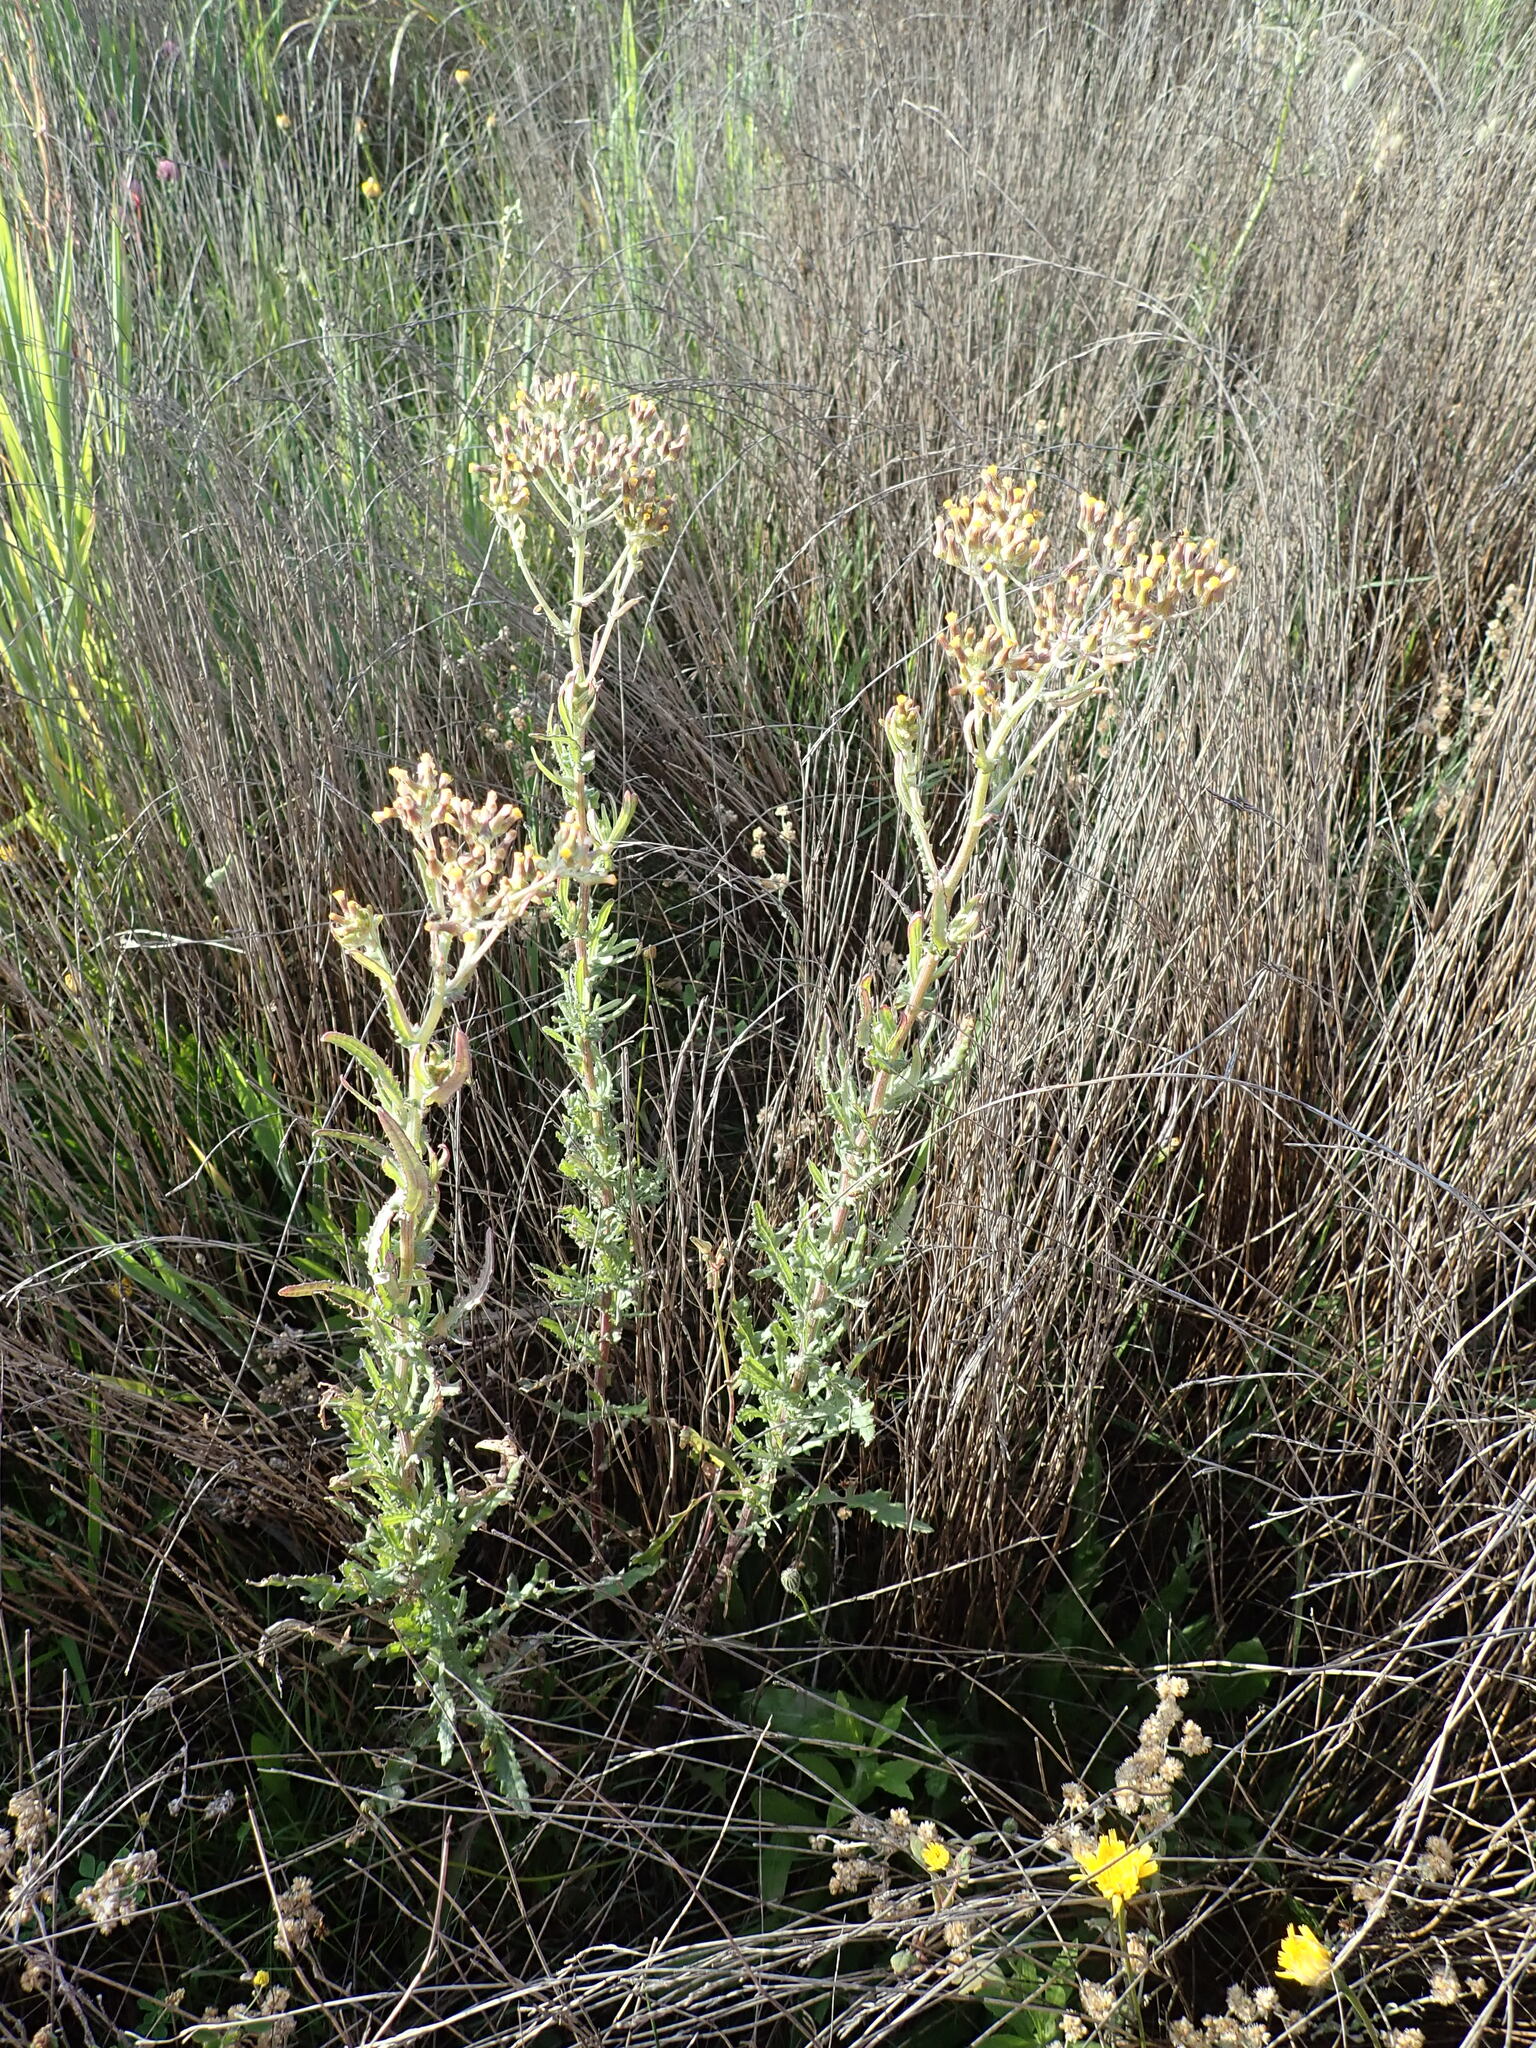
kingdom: Plantae
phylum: Tracheophyta
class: Magnoliopsida
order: Asterales
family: Asteraceae
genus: Senecio
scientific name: Senecio glomeratus
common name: Cutleaf burnweed
